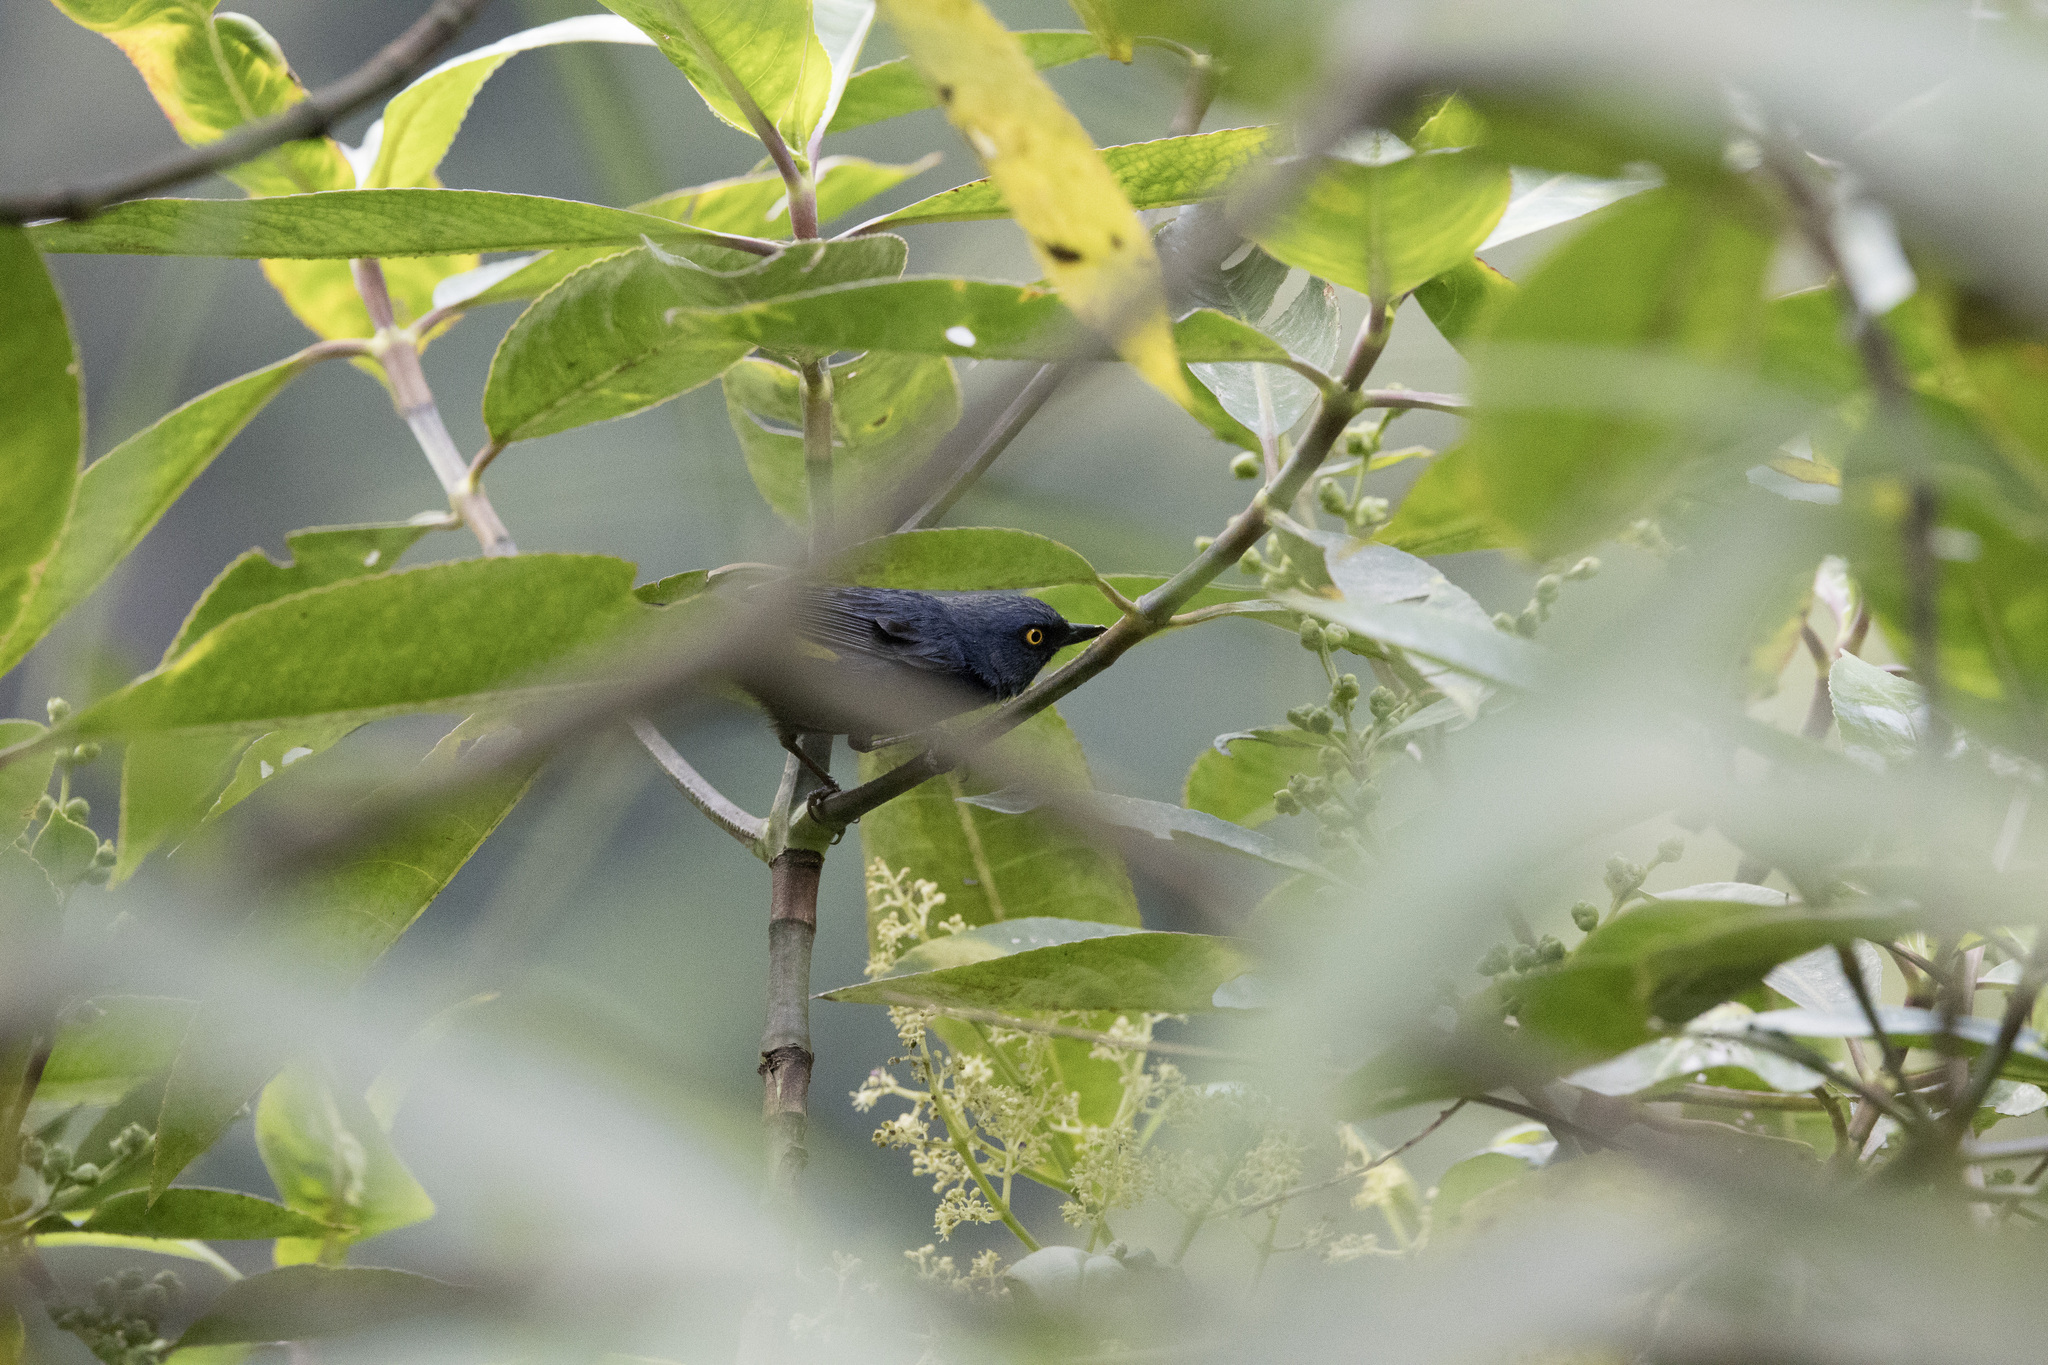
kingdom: Animalia
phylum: Chordata
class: Aves
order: Passeriformes
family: Thraupidae
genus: Diglossa
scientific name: Diglossa glauca
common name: Deep-blue flowerpiercer
